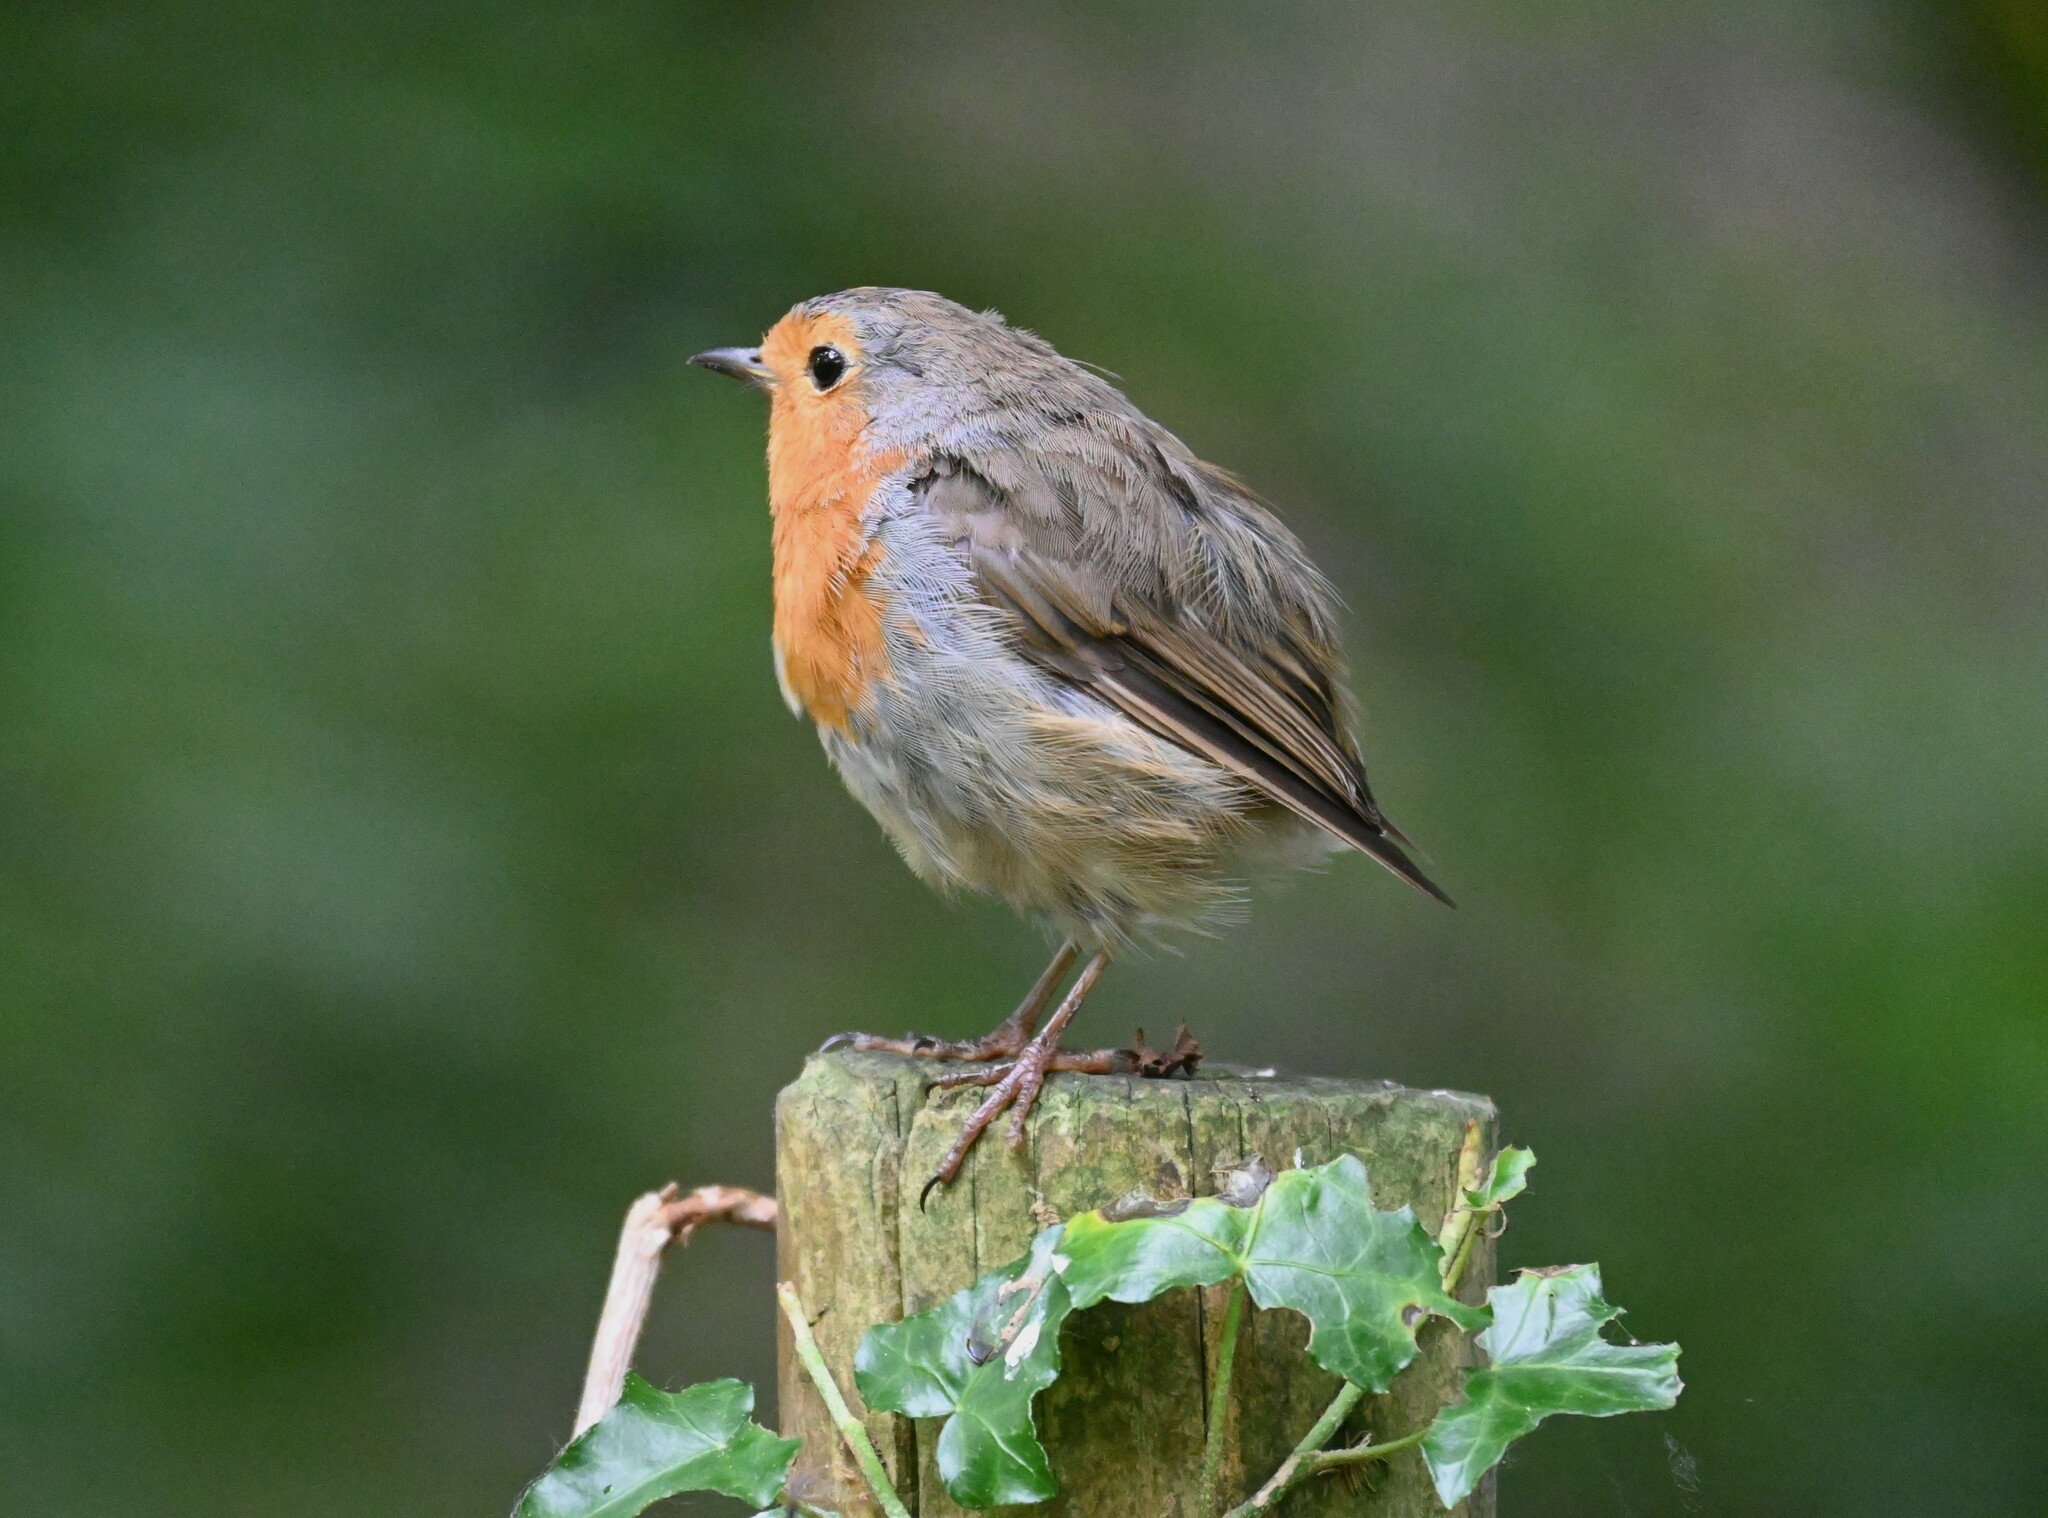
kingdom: Animalia
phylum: Chordata
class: Aves
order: Passeriformes
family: Muscicapidae
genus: Erithacus
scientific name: Erithacus rubecula
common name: European robin
